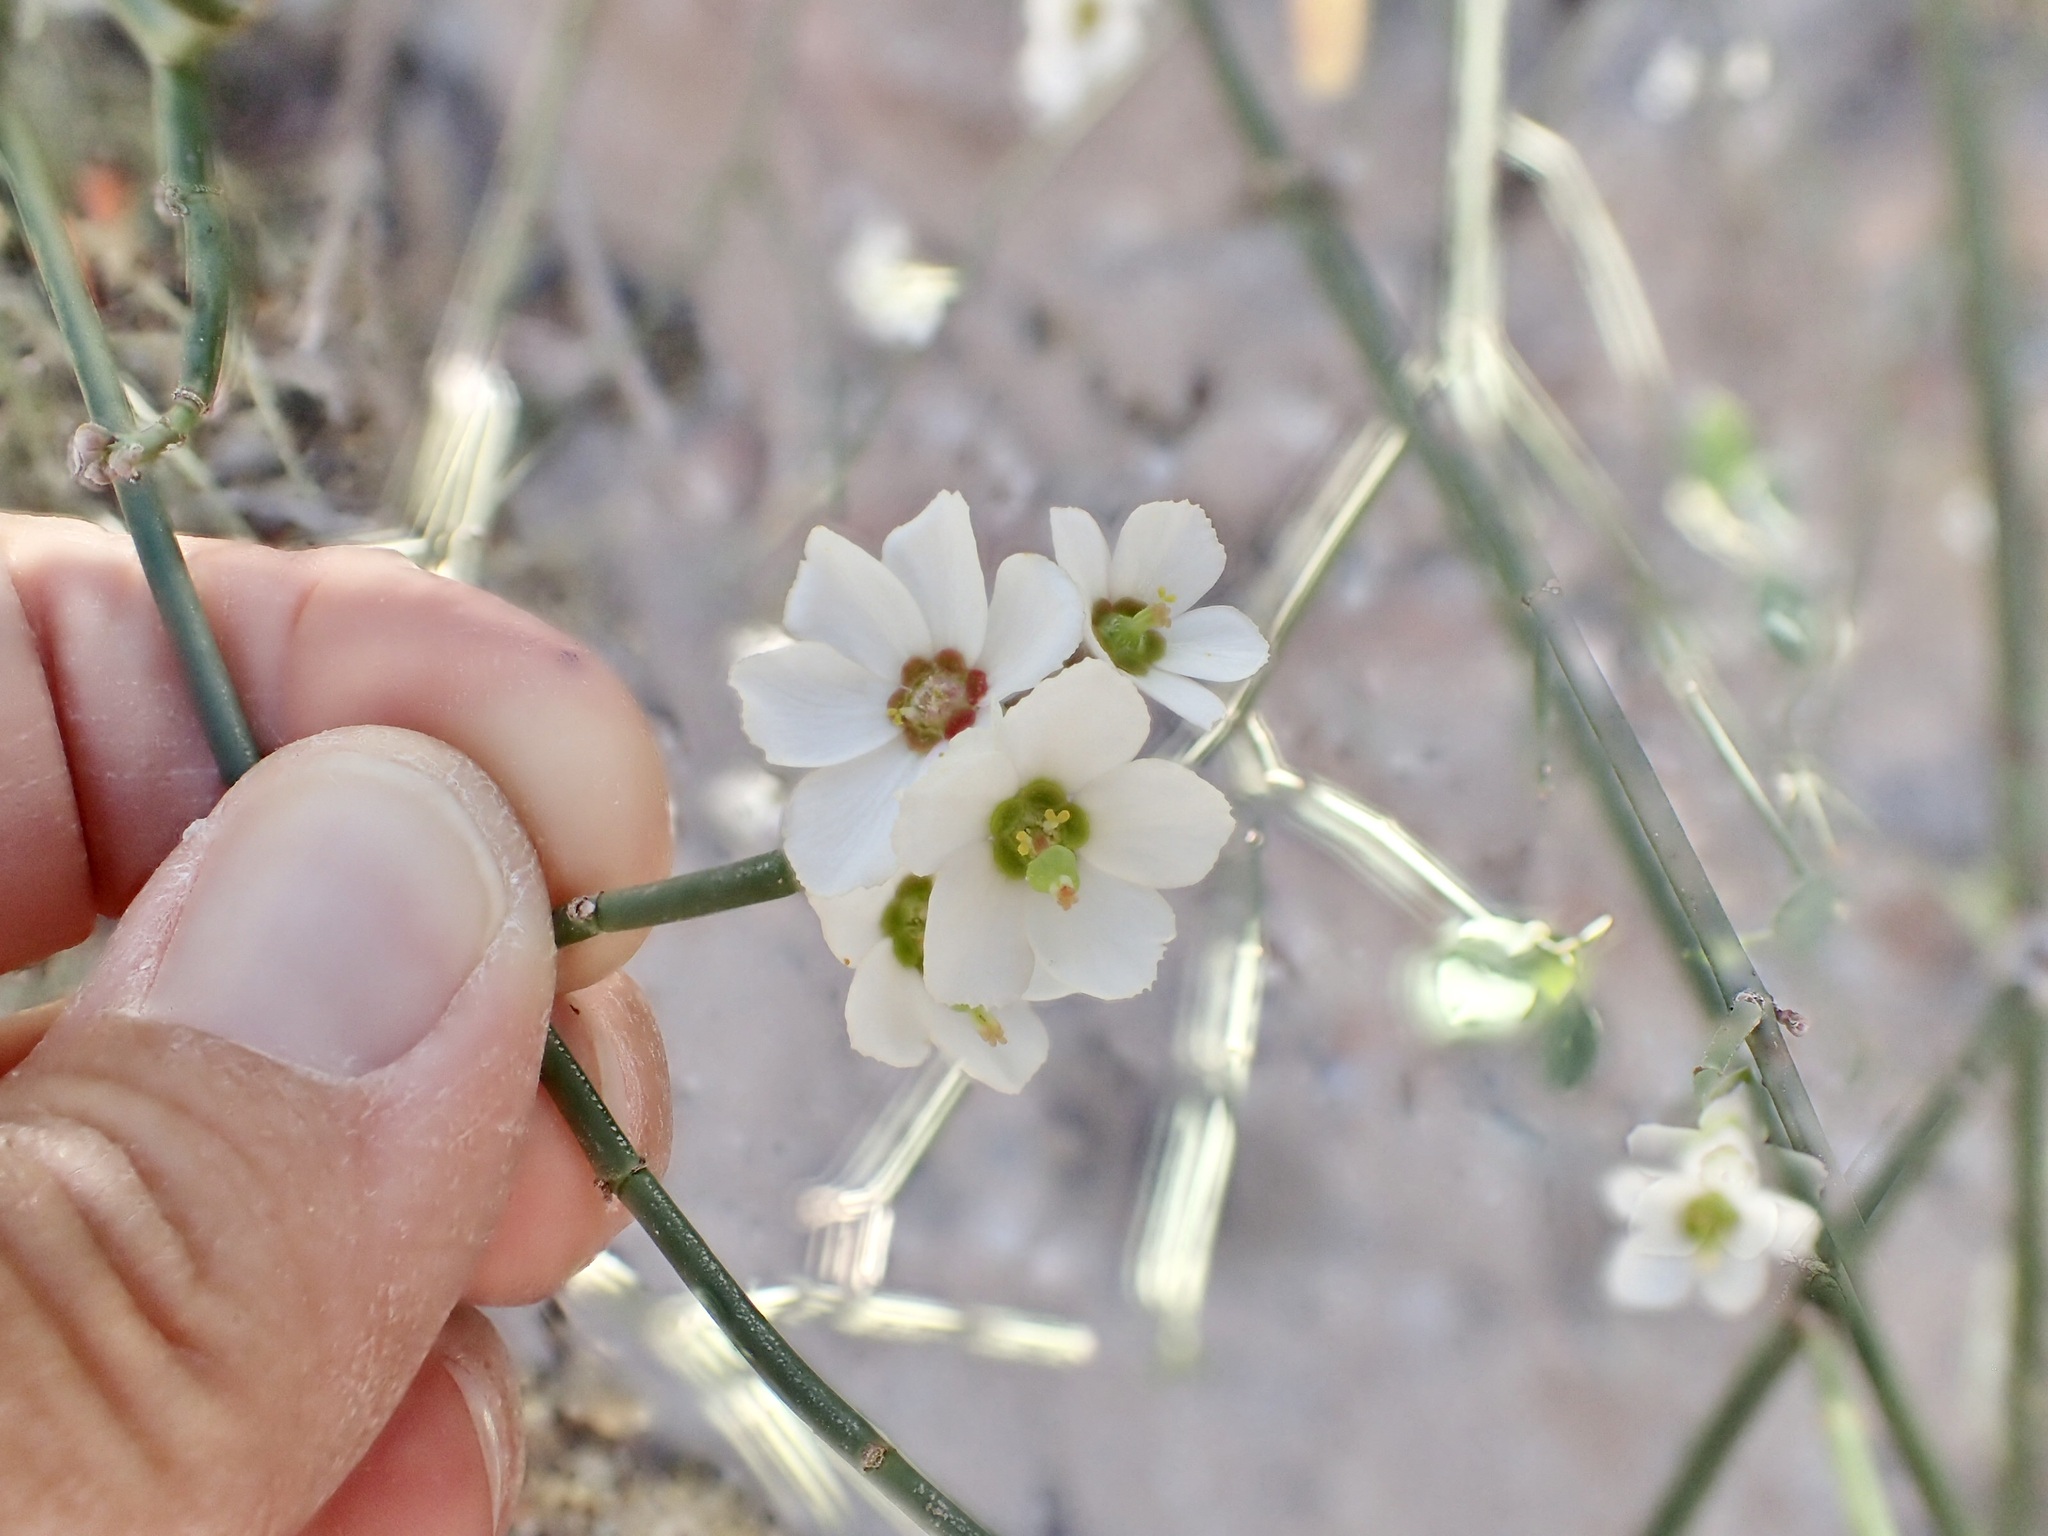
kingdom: Plantae
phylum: Tracheophyta
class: Magnoliopsida
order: Malpighiales
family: Euphorbiaceae
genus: Euphorbia
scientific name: Euphorbia xanti
